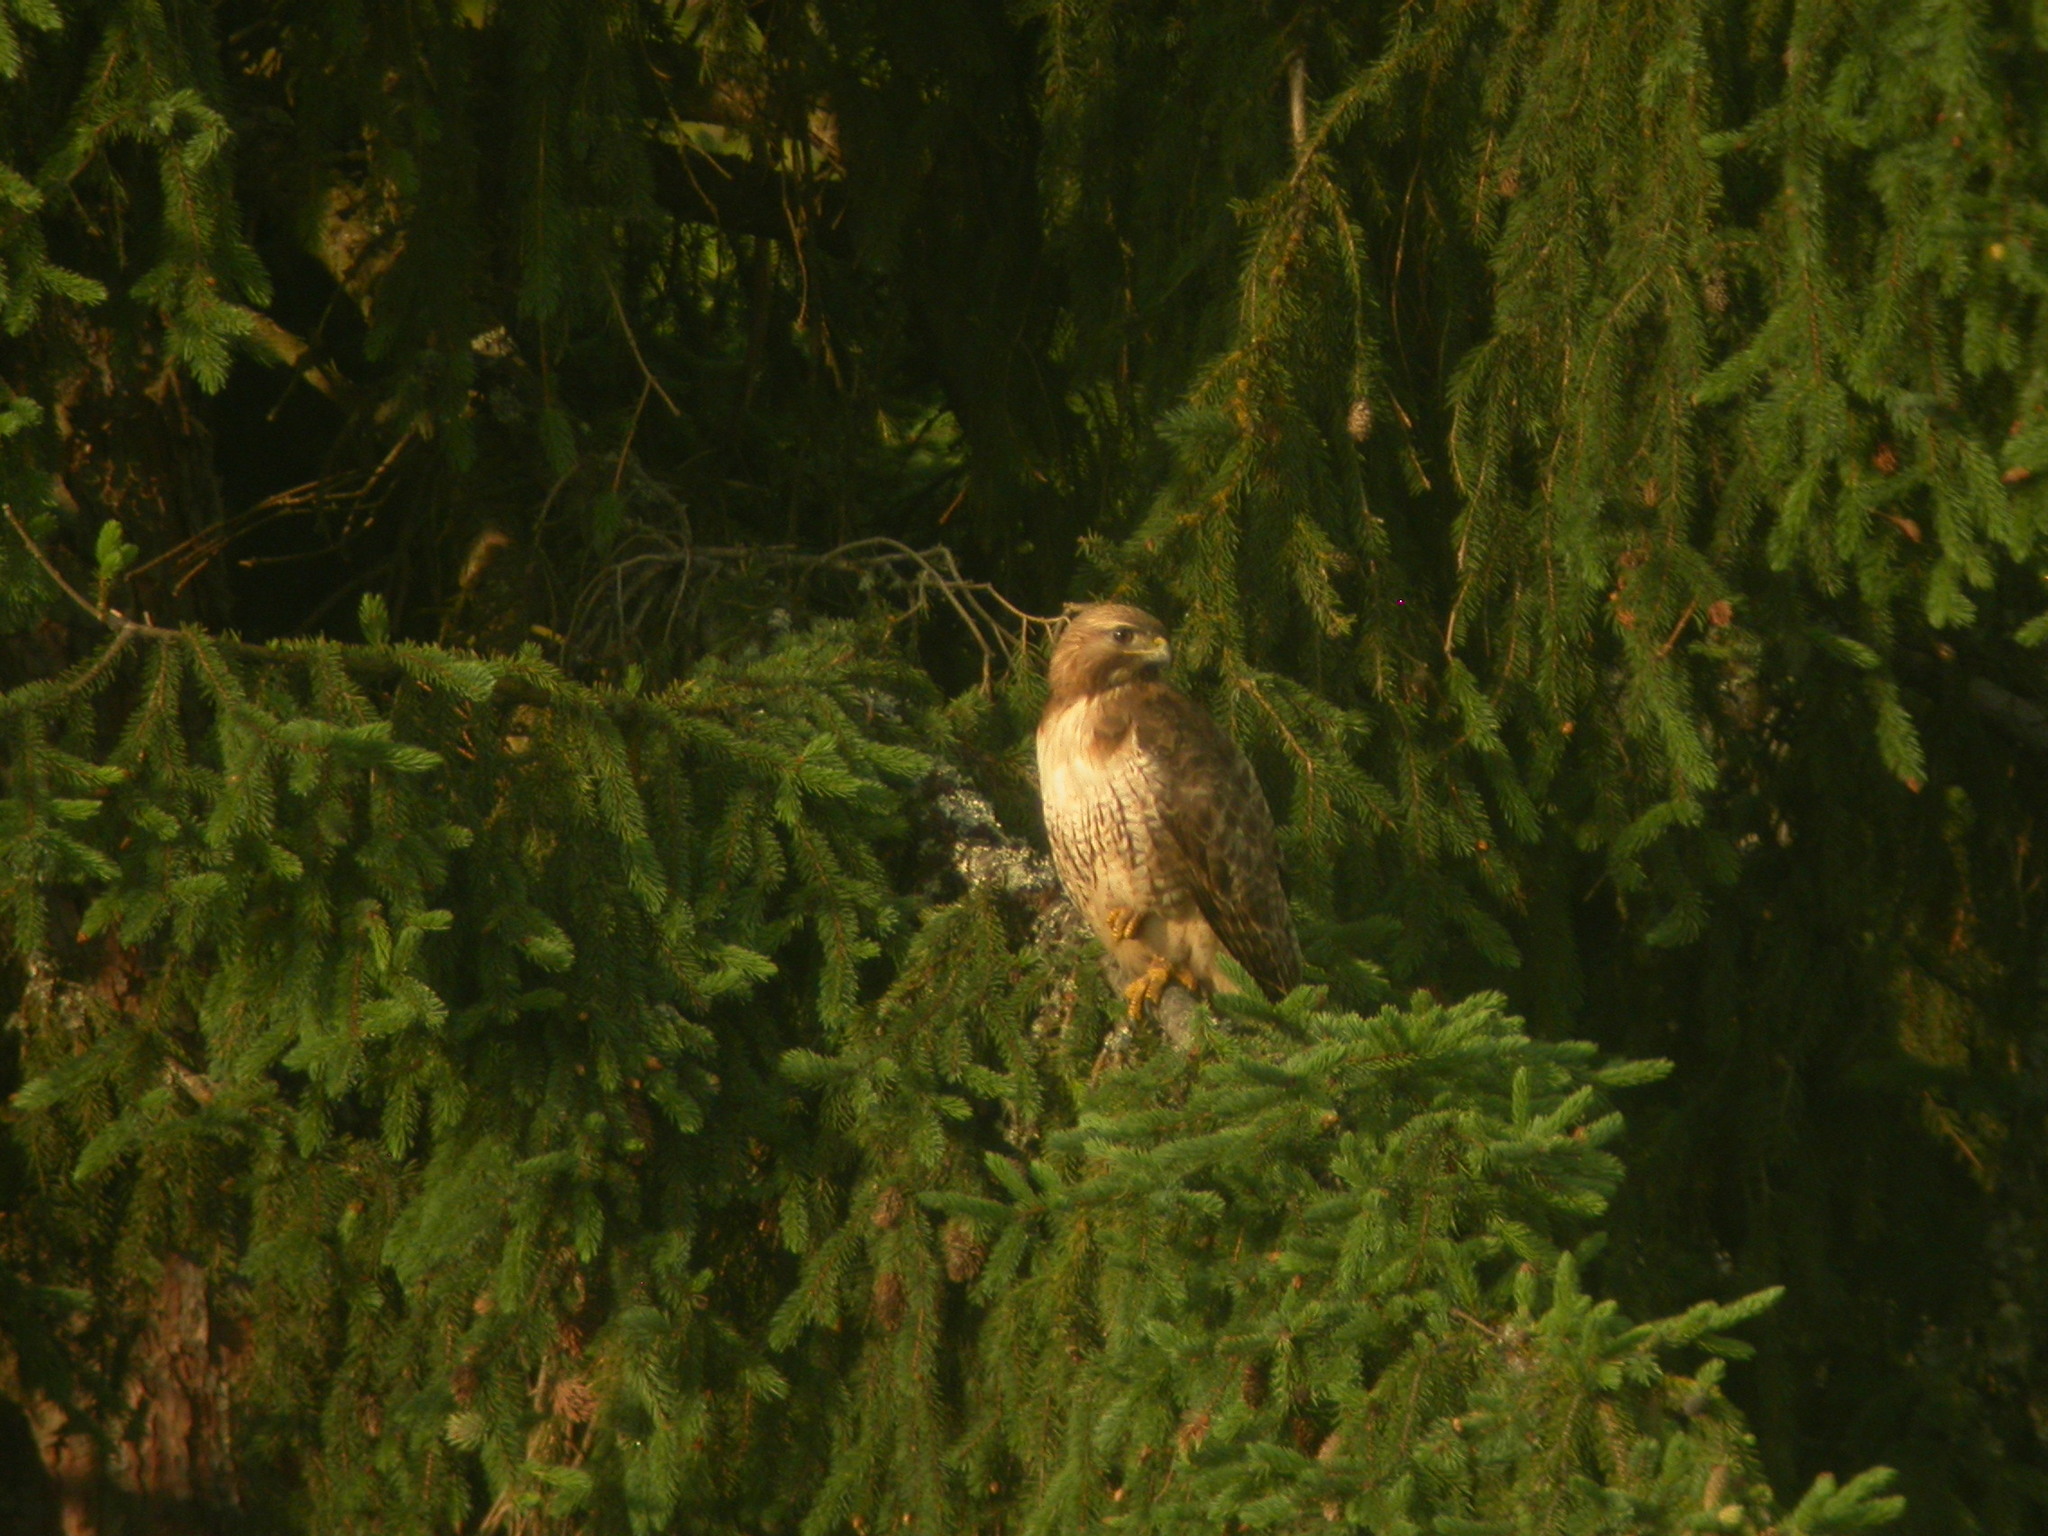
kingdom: Animalia
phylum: Chordata
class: Aves
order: Accipitriformes
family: Accipitridae
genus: Buteo
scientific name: Buteo jamaicensis
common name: Red-tailed hawk
